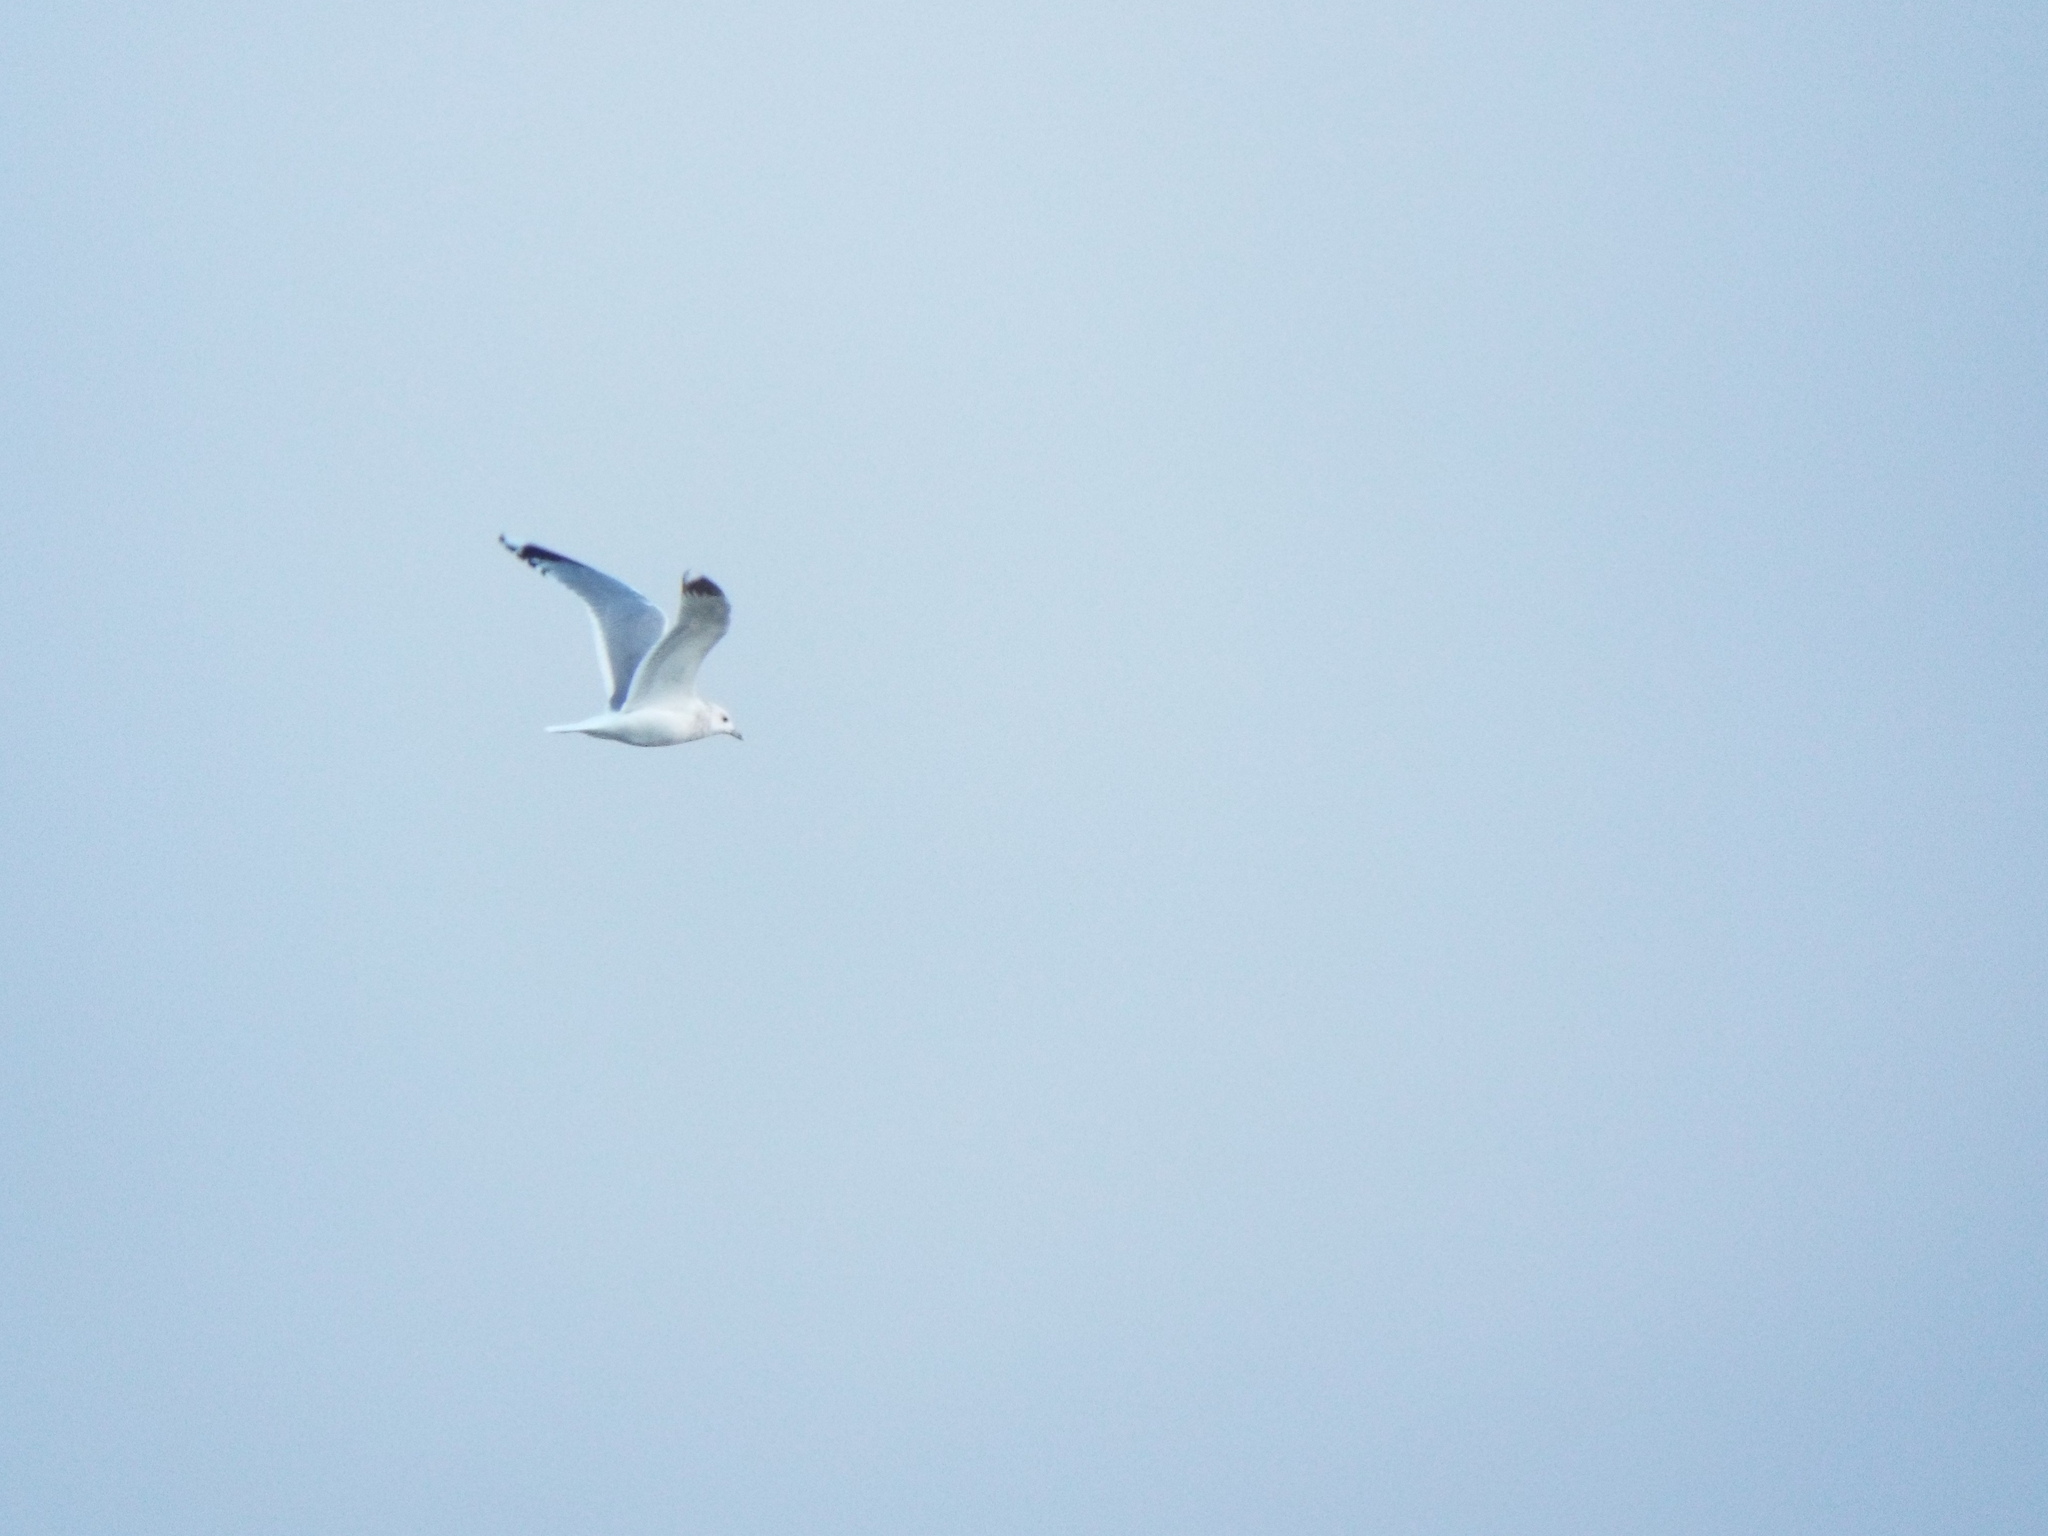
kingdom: Animalia
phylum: Chordata
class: Aves
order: Charadriiformes
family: Laridae
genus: Larus
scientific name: Larus canus
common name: Mew gull
